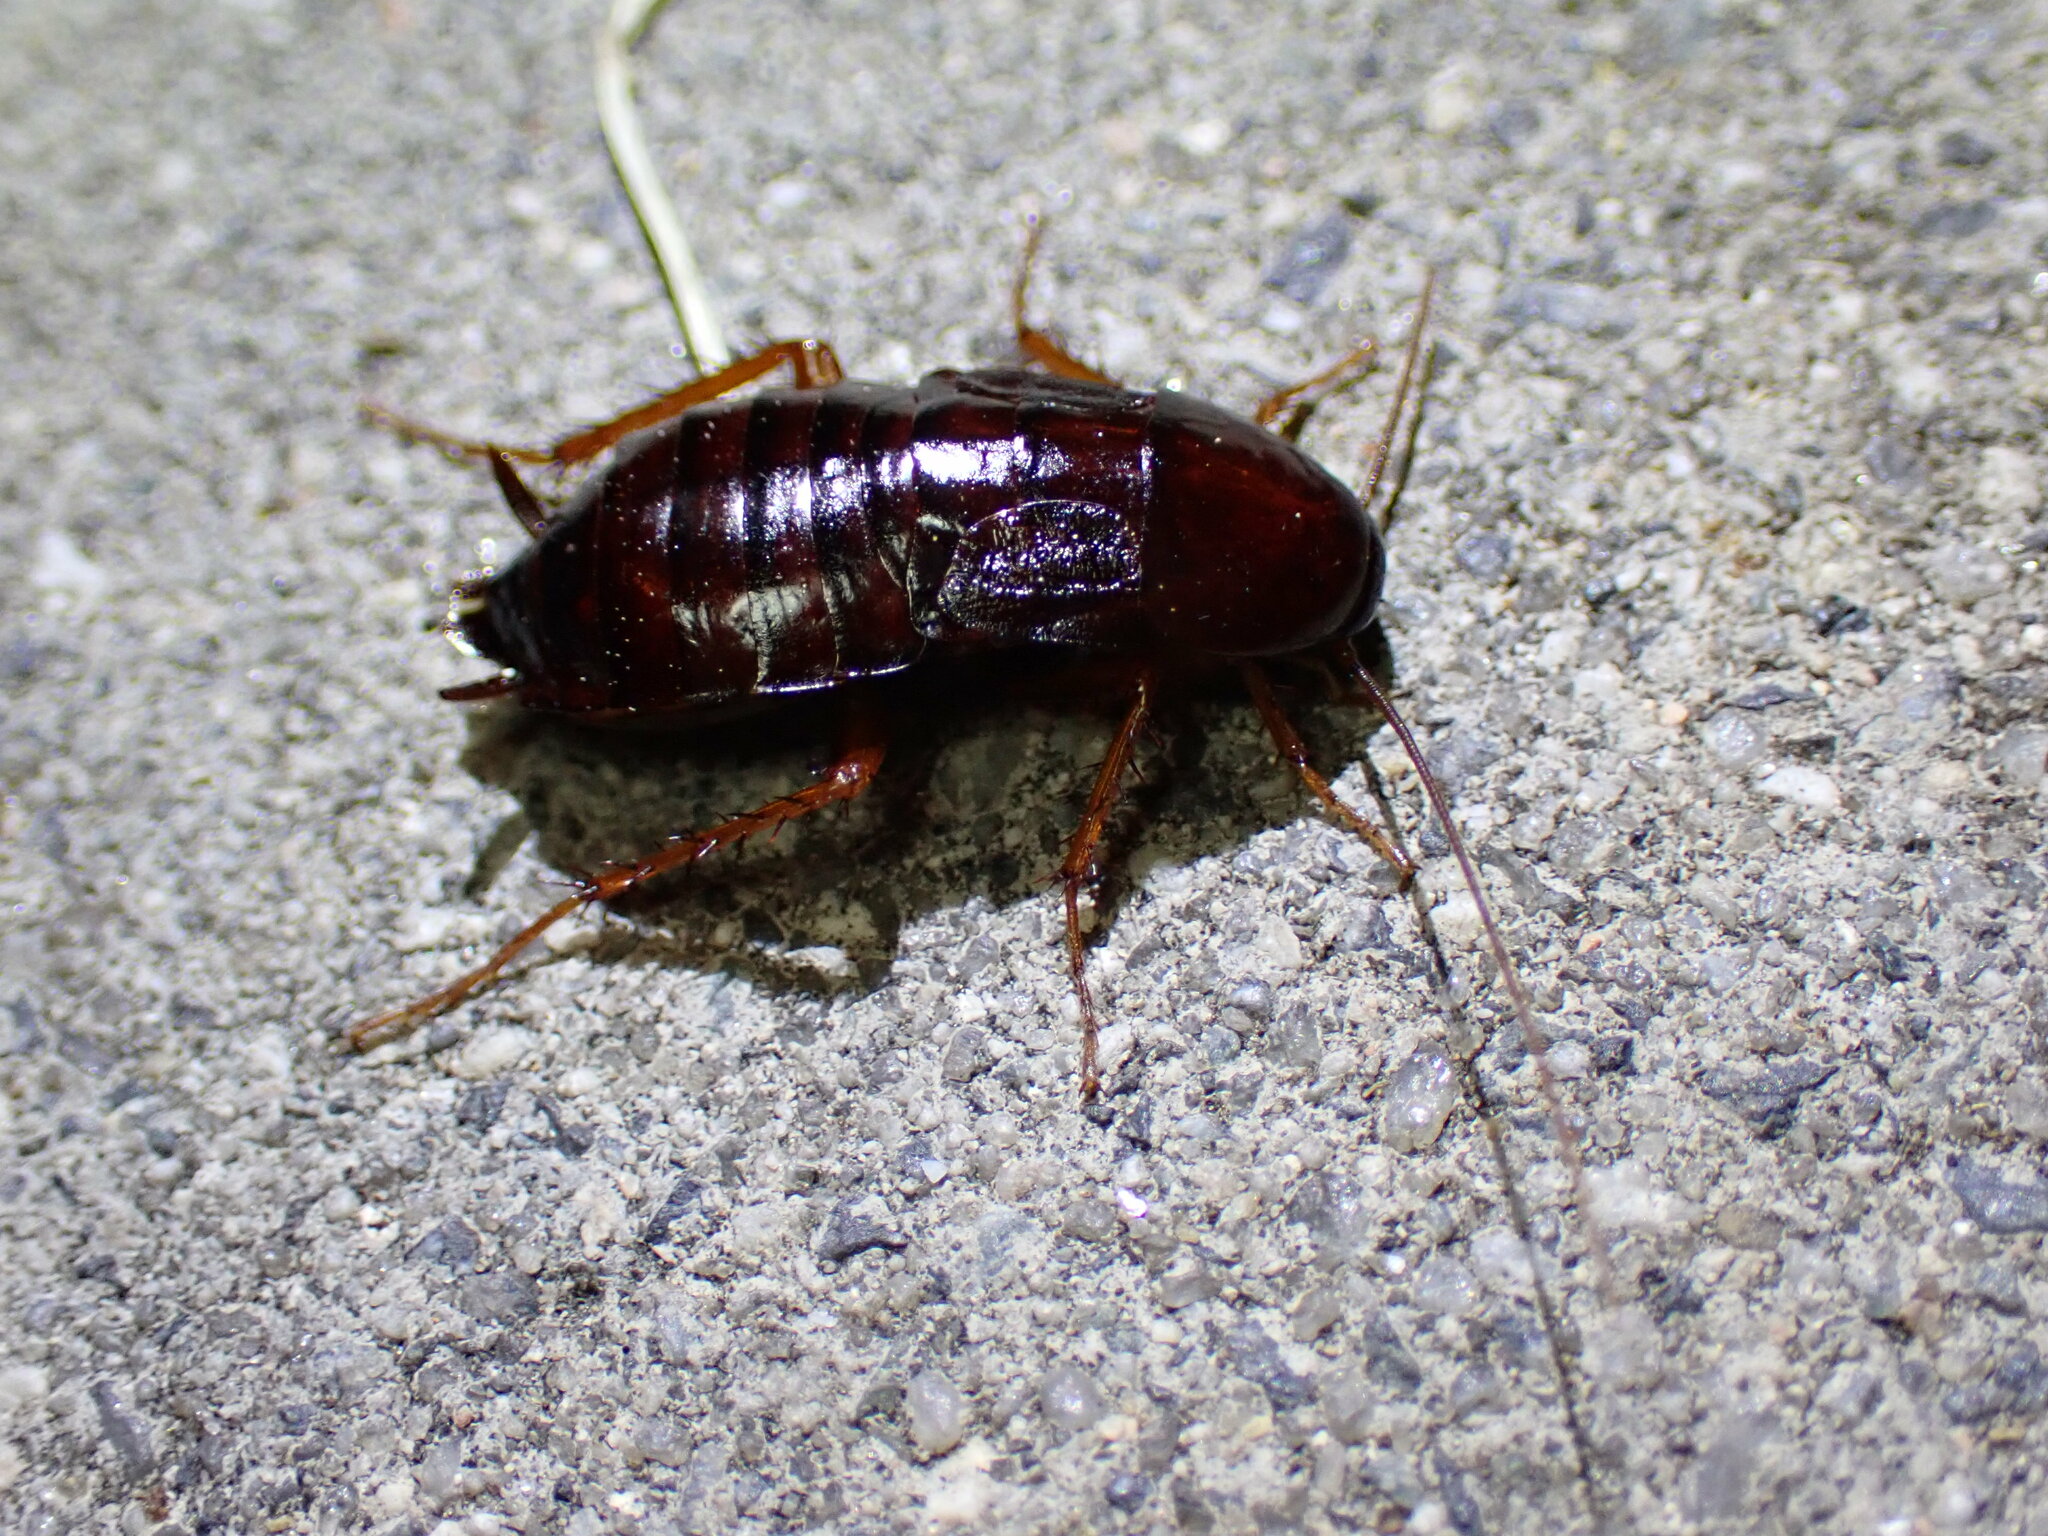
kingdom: Animalia
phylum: Arthropoda
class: Insecta
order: Blattodea
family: Blattidae
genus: Blatta
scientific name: Blatta orientalis
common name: Oriental cockroach
